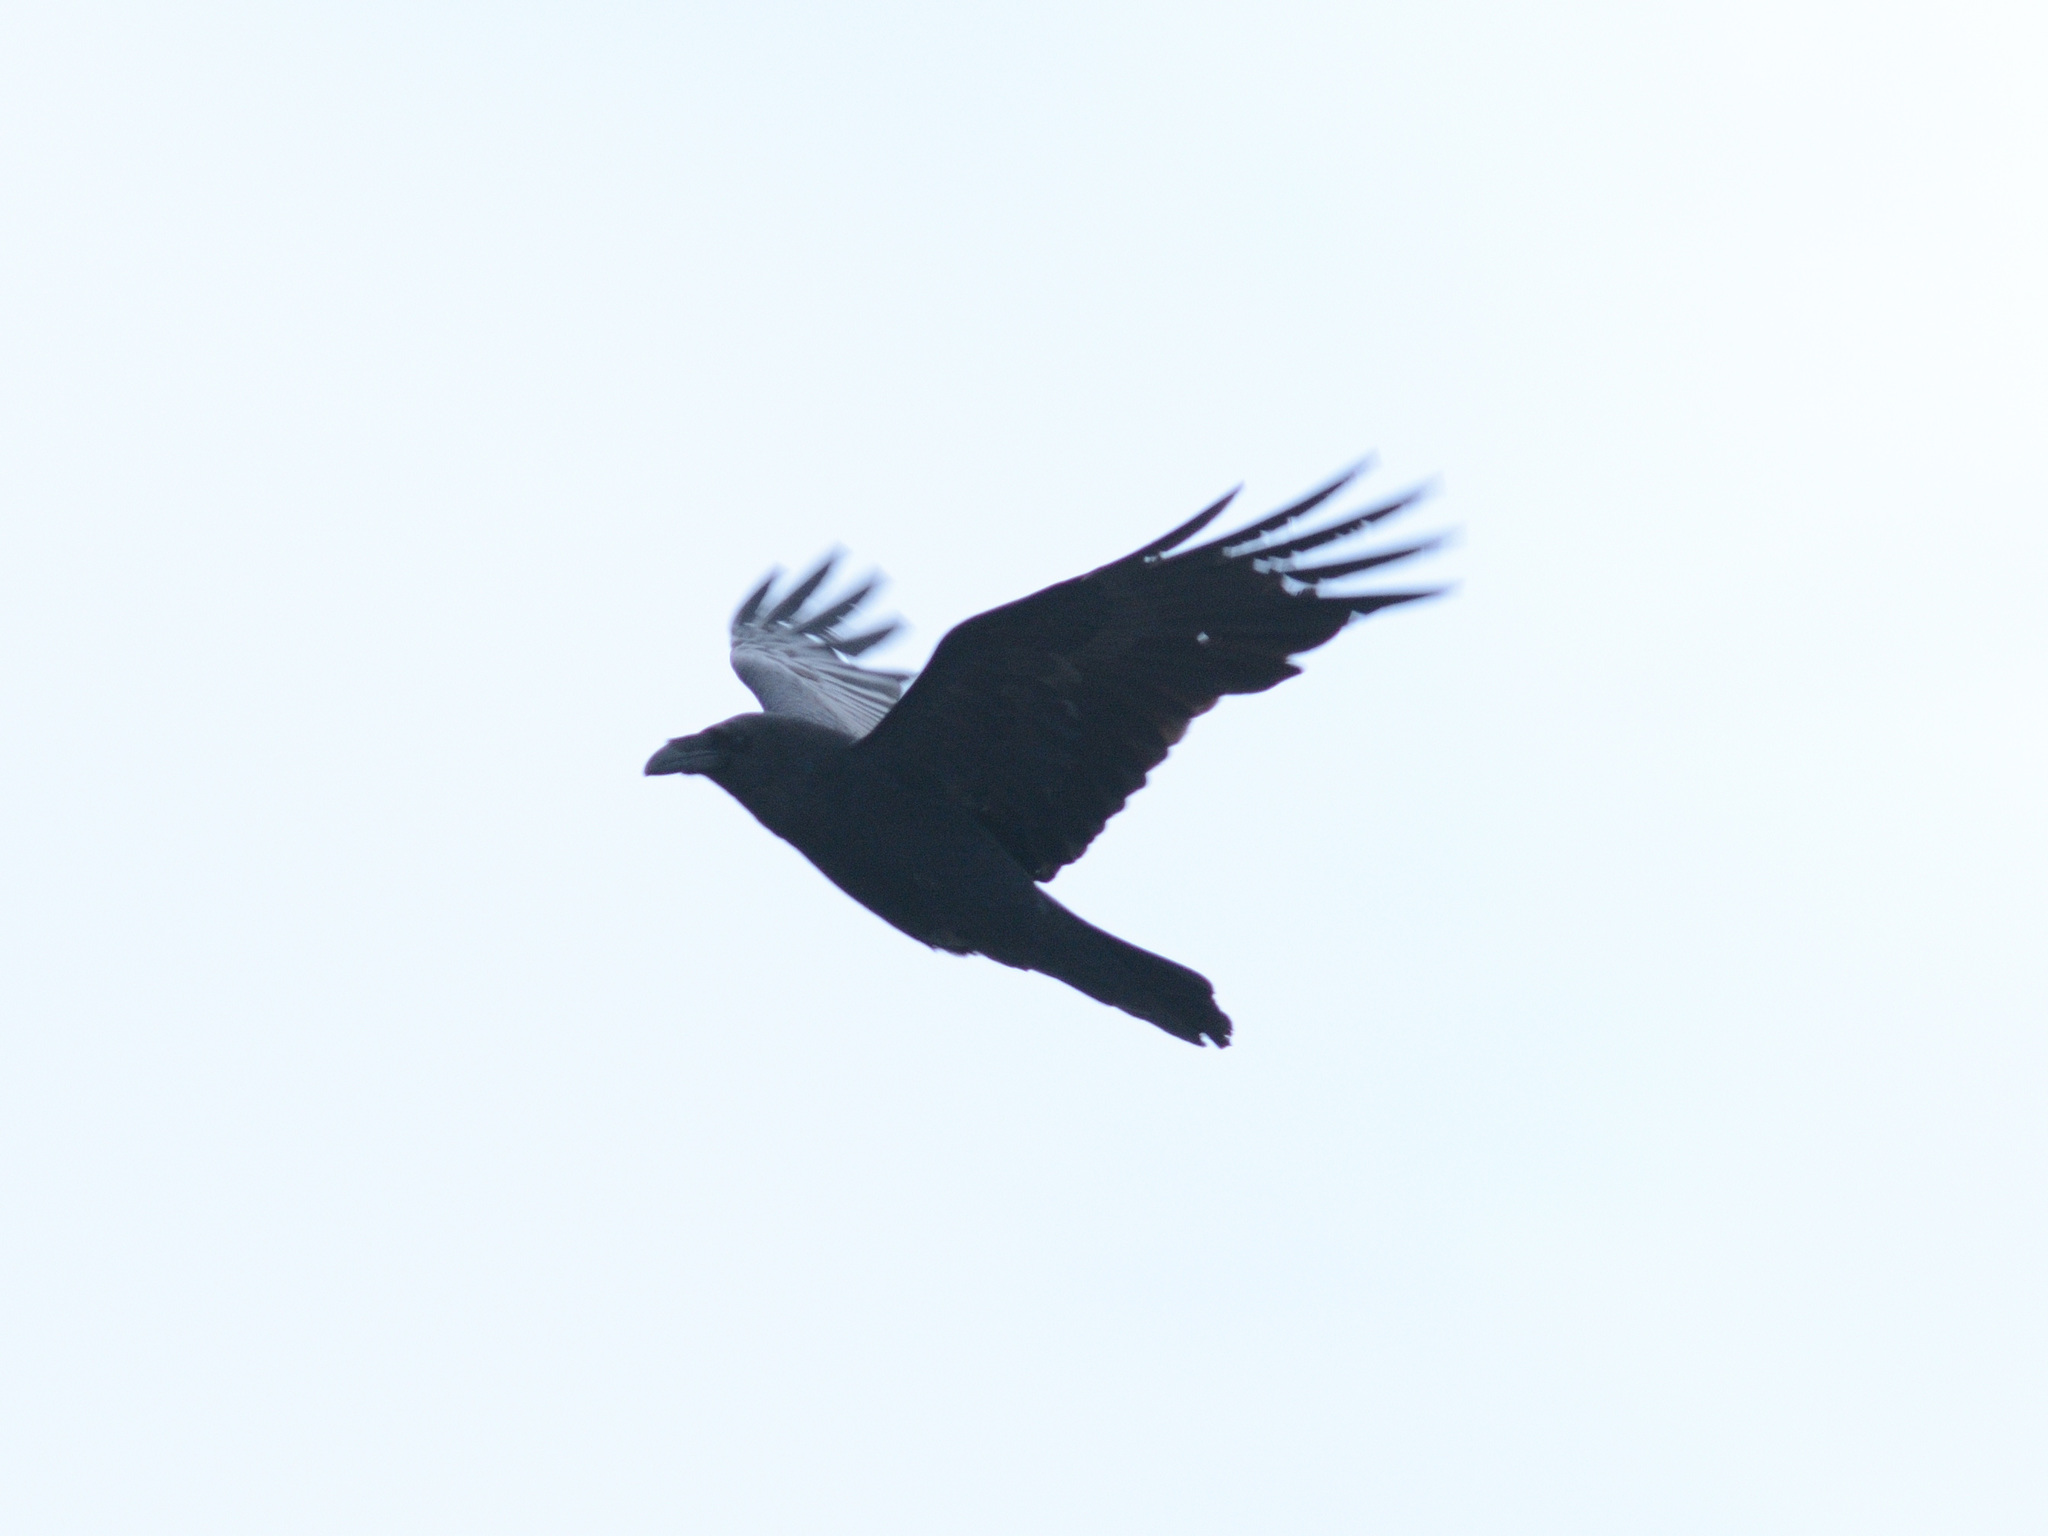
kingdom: Animalia
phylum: Chordata
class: Aves
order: Passeriformes
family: Corvidae
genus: Corvus
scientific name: Corvus corax
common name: Common raven
